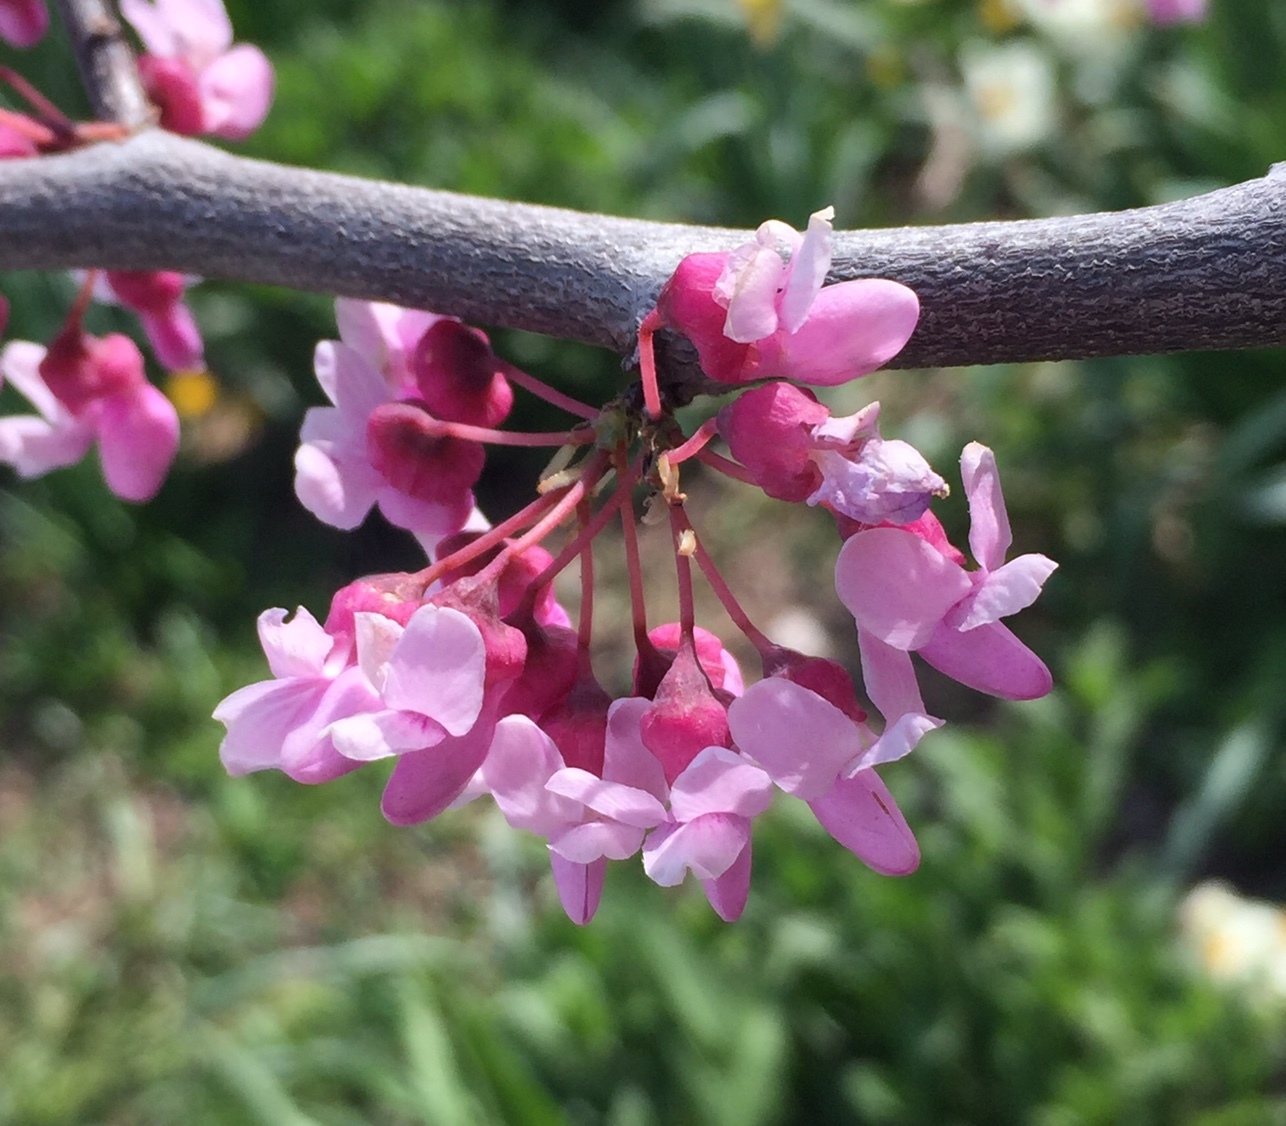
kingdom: Plantae
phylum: Tracheophyta
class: Magnoliopsida
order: Fabales
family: Fabaceae
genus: Cercis
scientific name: Cercis canadensis
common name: Eastern redbud
